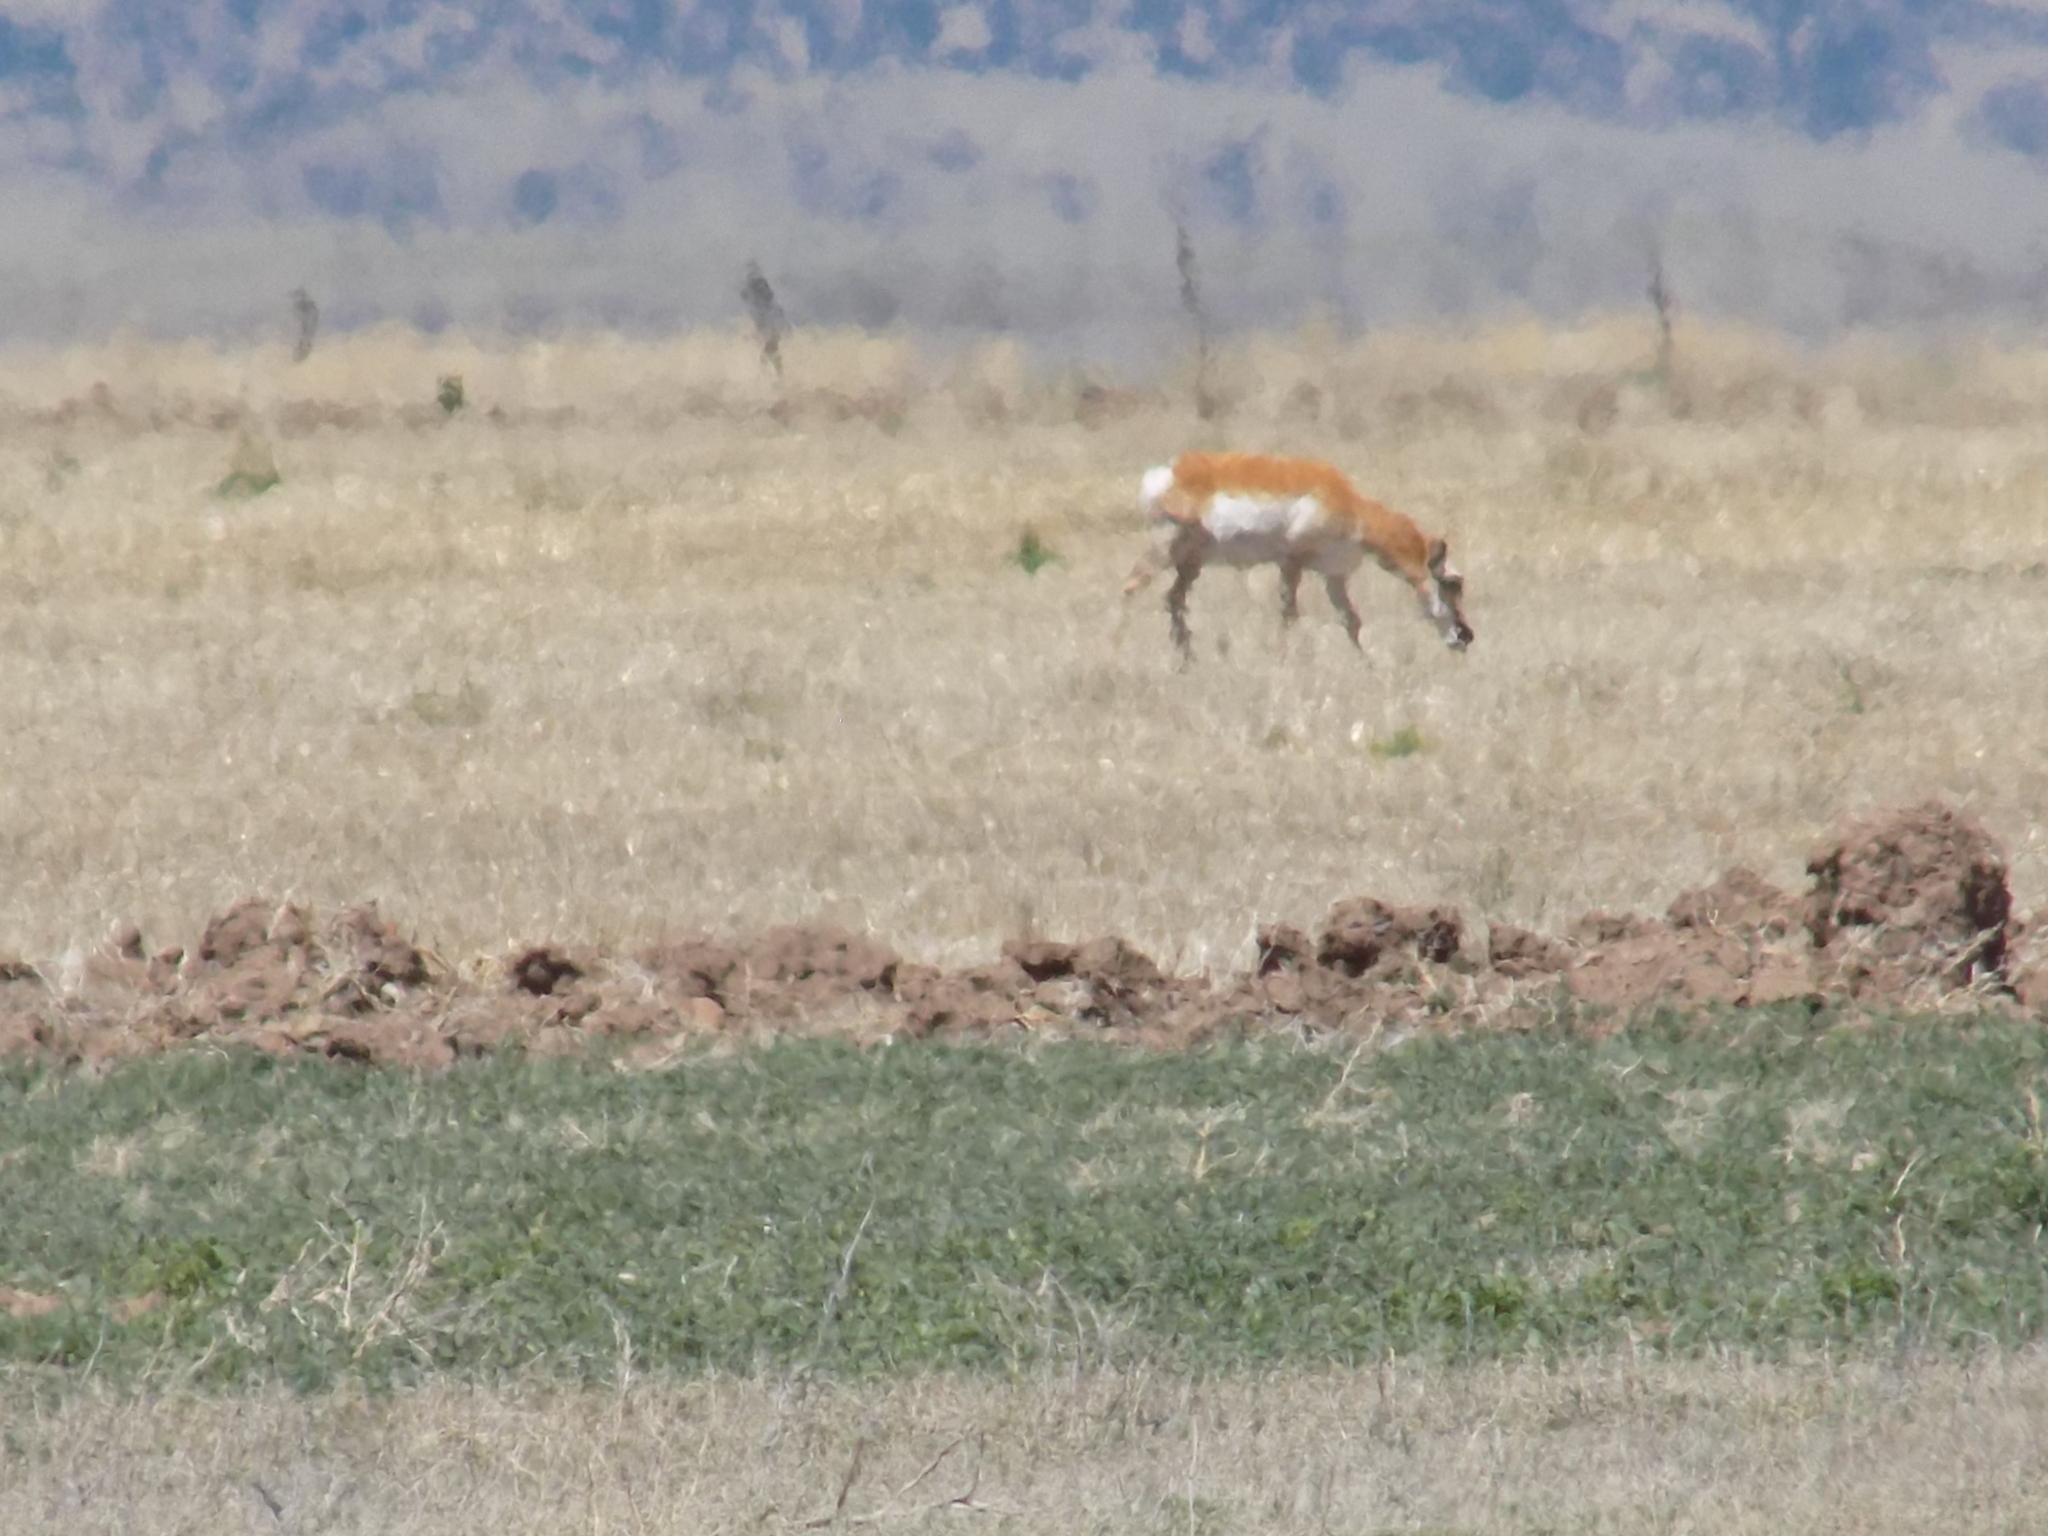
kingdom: Animalia
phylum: Chordata
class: Mammalia
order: Artiodactyla
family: Antilocapridae
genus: Antilocapra
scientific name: Antilocapra americana
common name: Pronghorn
